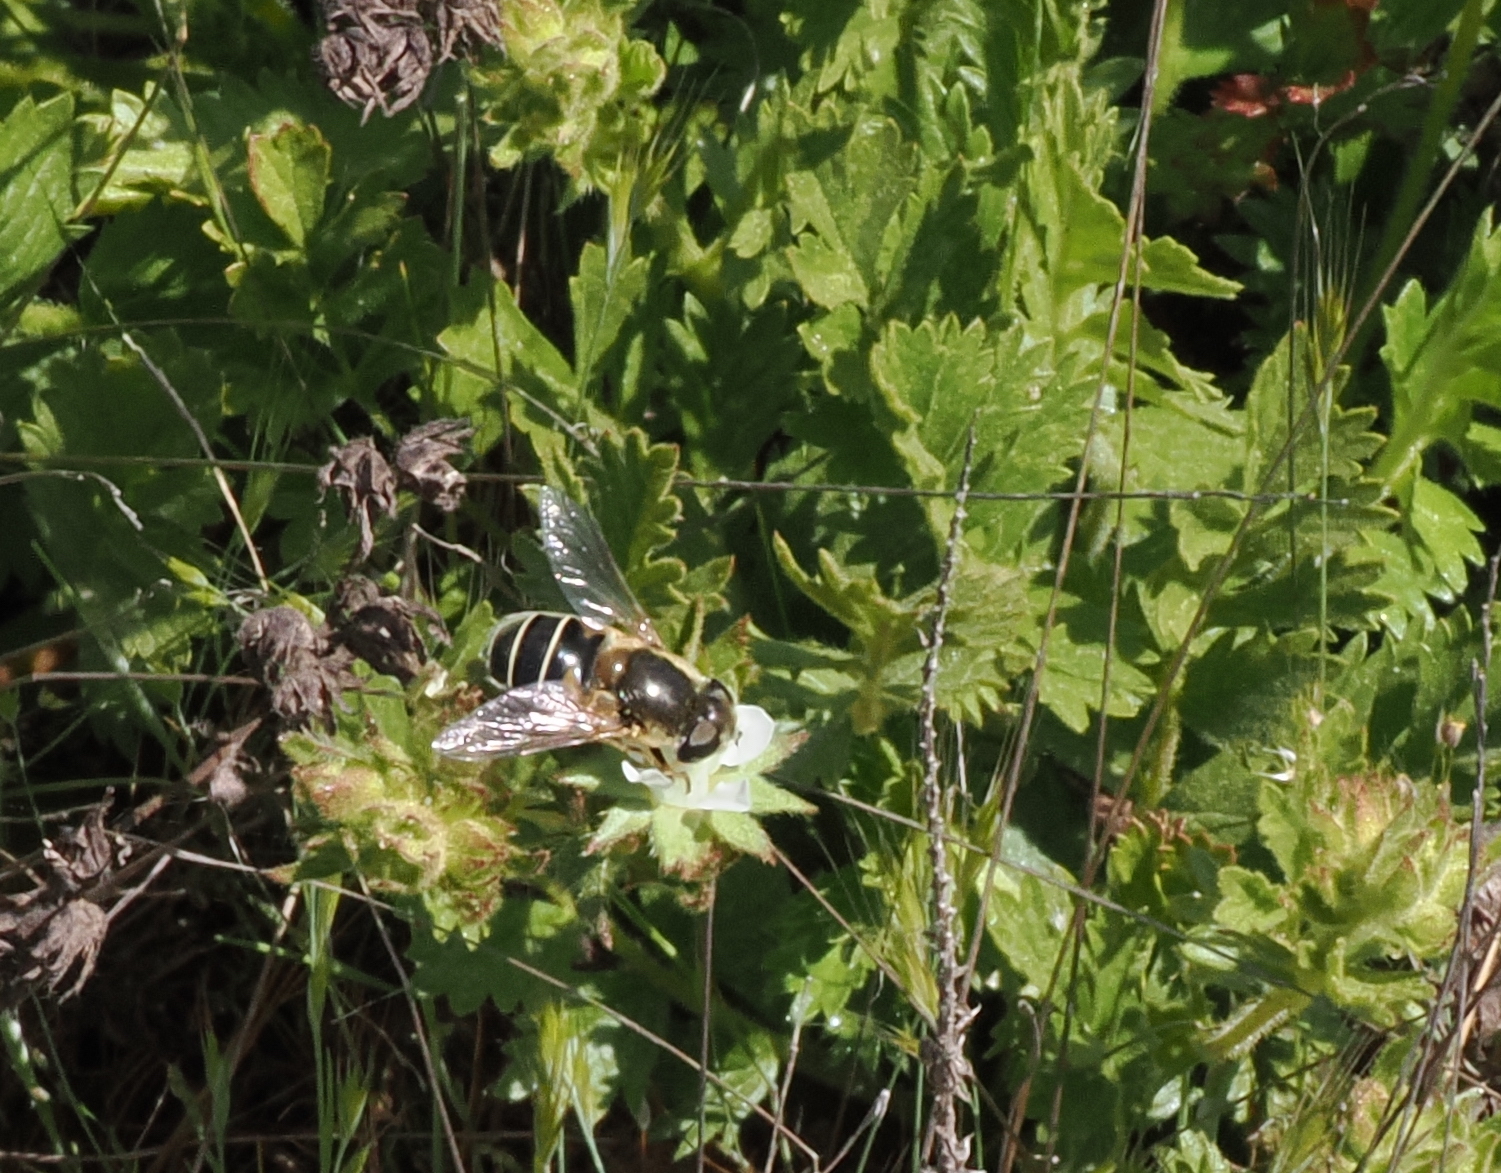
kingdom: Animalia
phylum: Arthropoda
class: Insecta
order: Diptera
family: Syrphidae
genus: Eristalis
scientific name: Eristalis hirta
